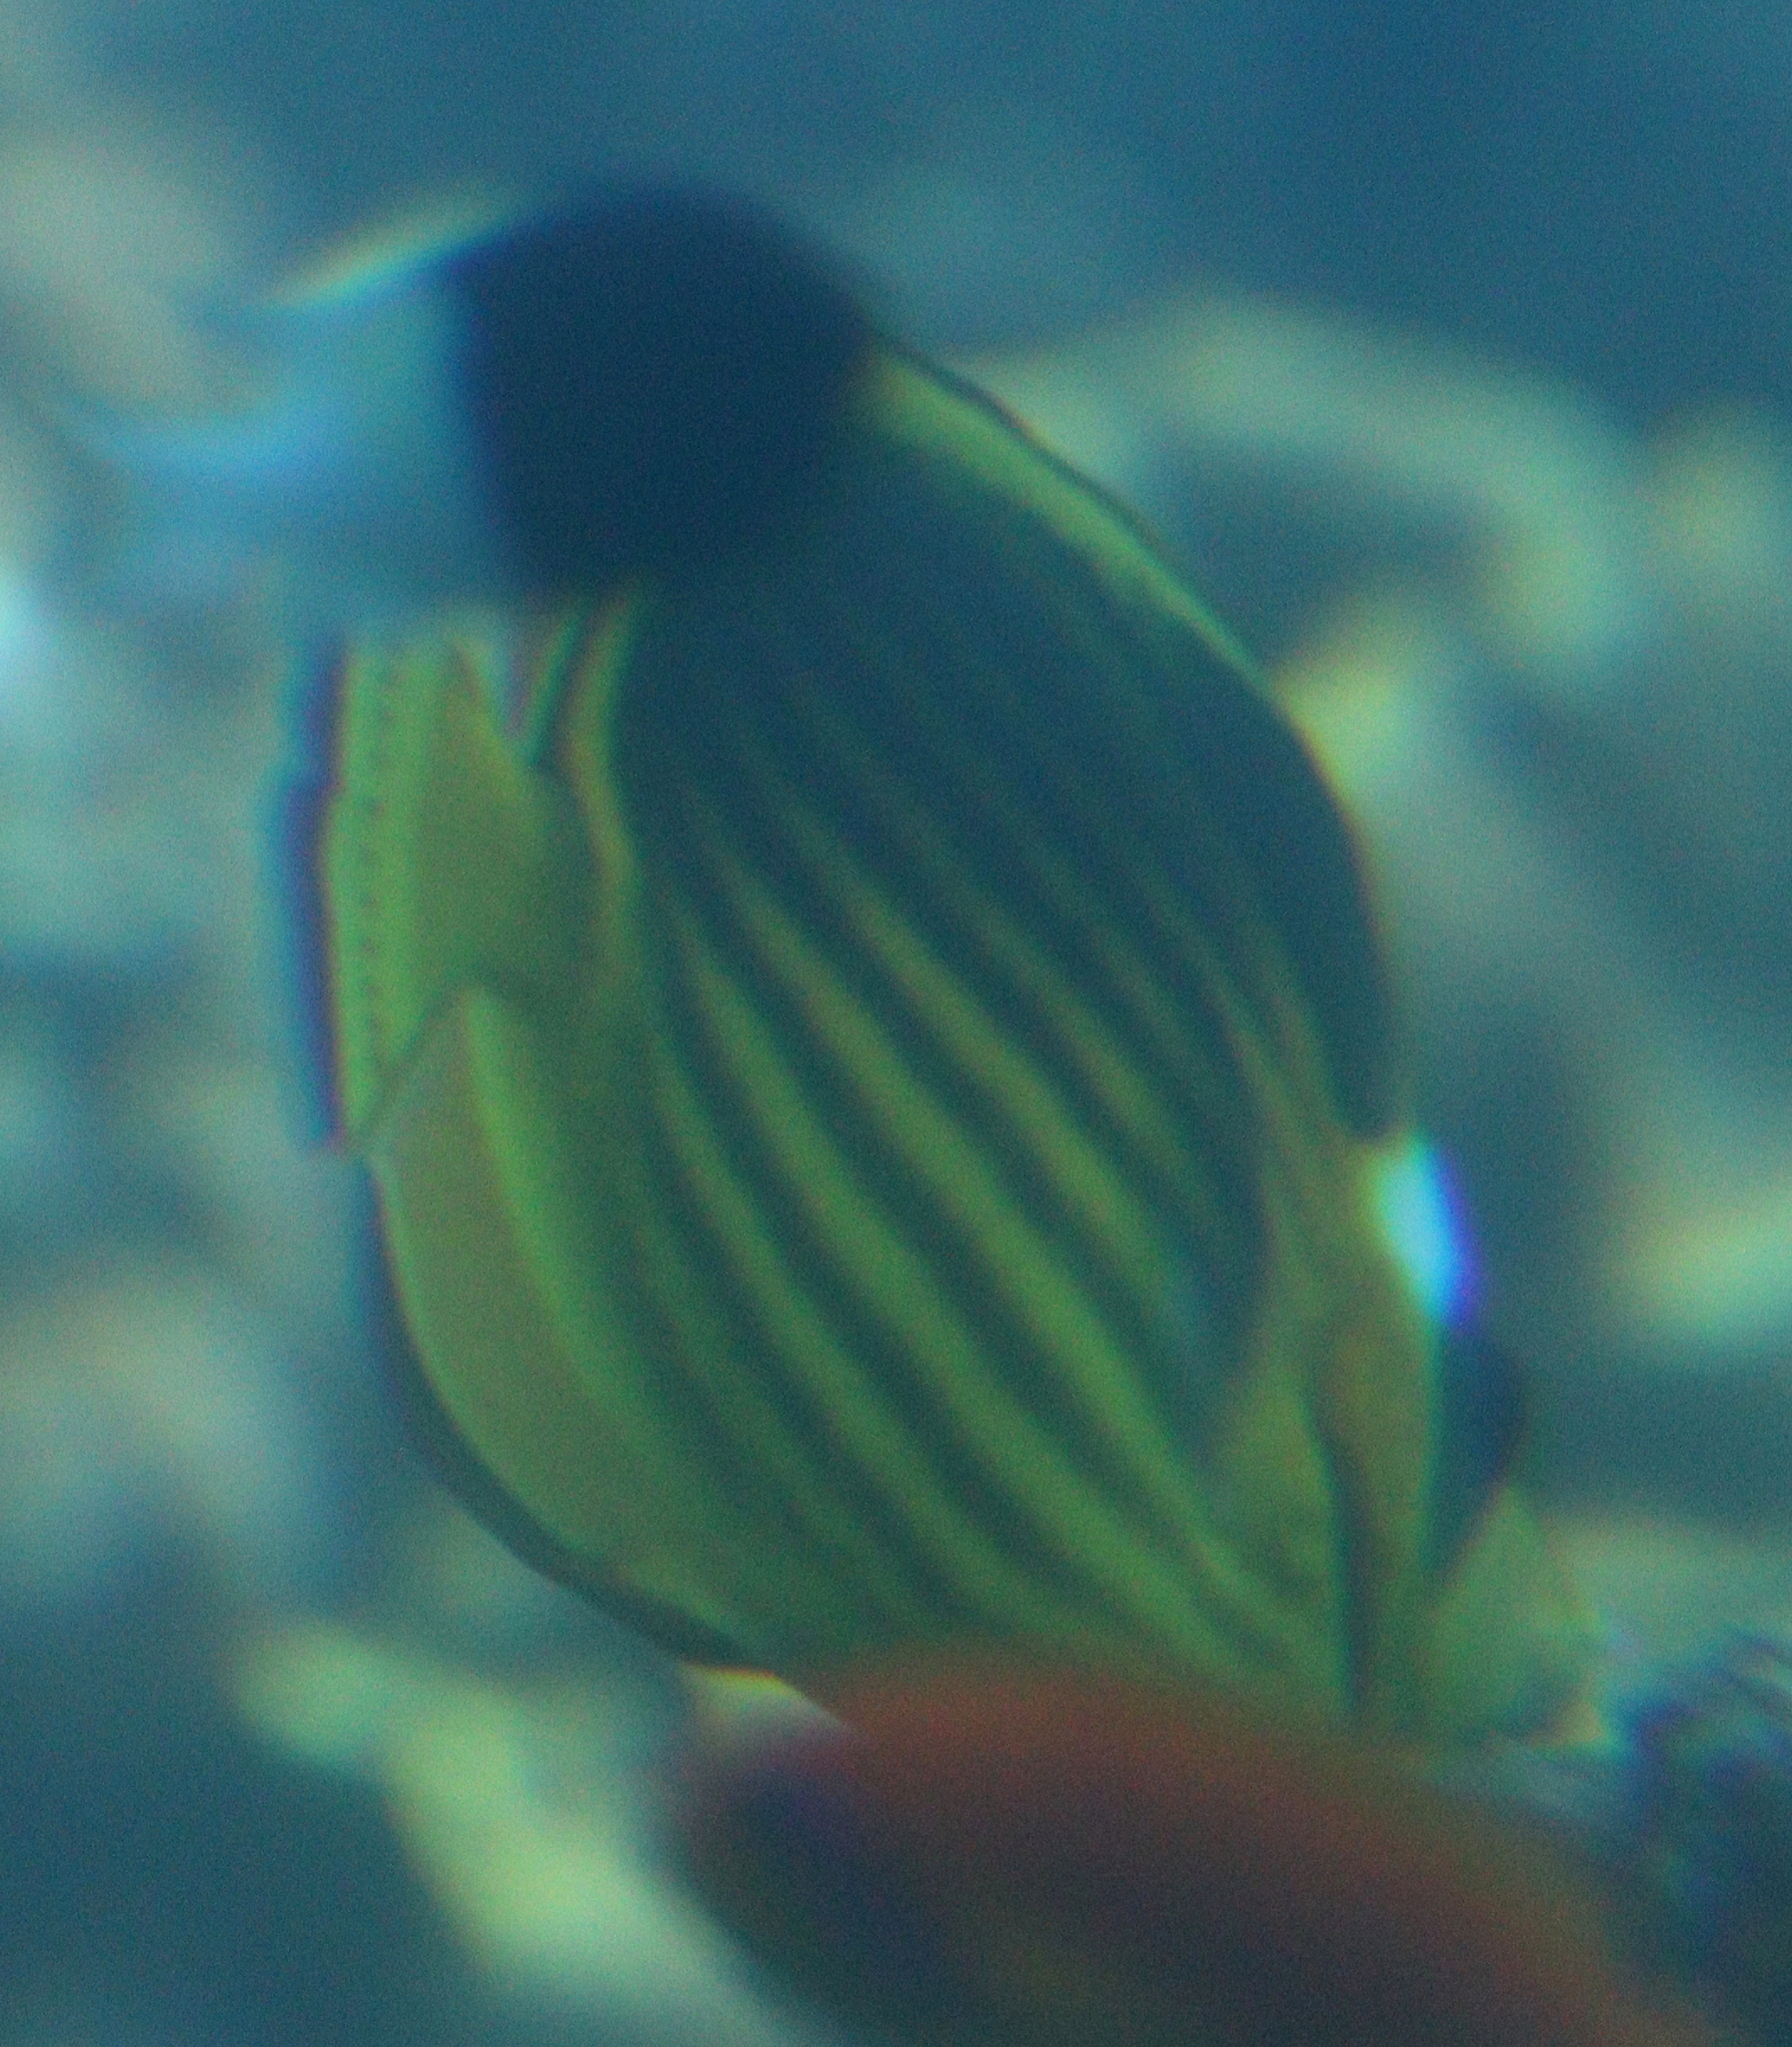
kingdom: Animalia
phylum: Chordata
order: Perciformes
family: Chaetodontidae
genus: Chaetodon
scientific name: Chaetodon fasciatus
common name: Diagonal butterflyfish
